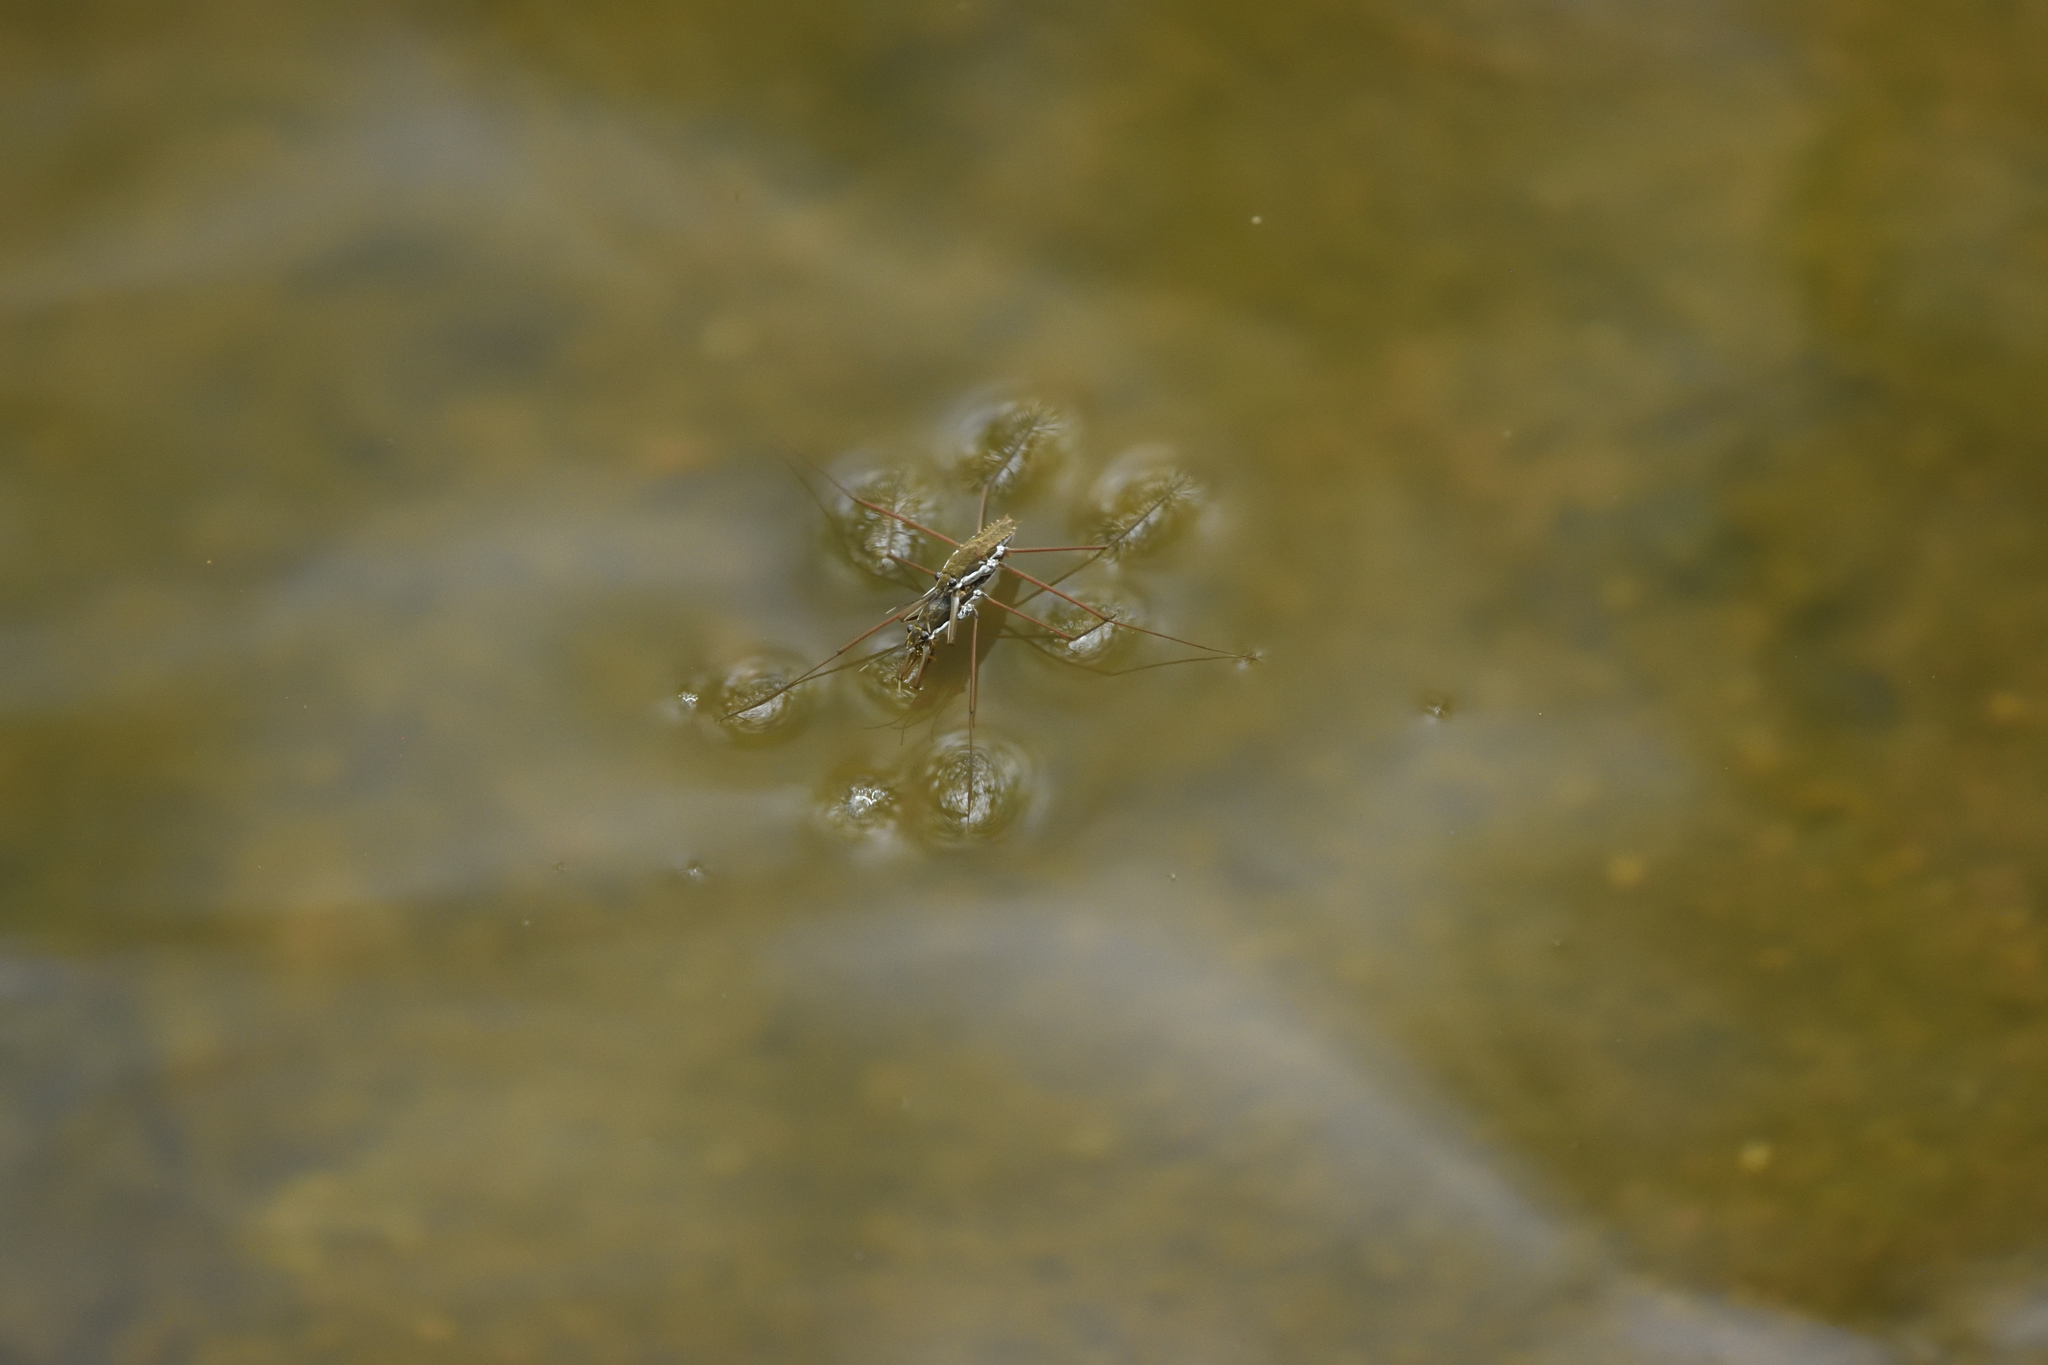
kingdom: Animalia
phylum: Arthropoda
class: Insecta
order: Hemiptera
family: Gerridae
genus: Aquarius
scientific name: Aquarius
